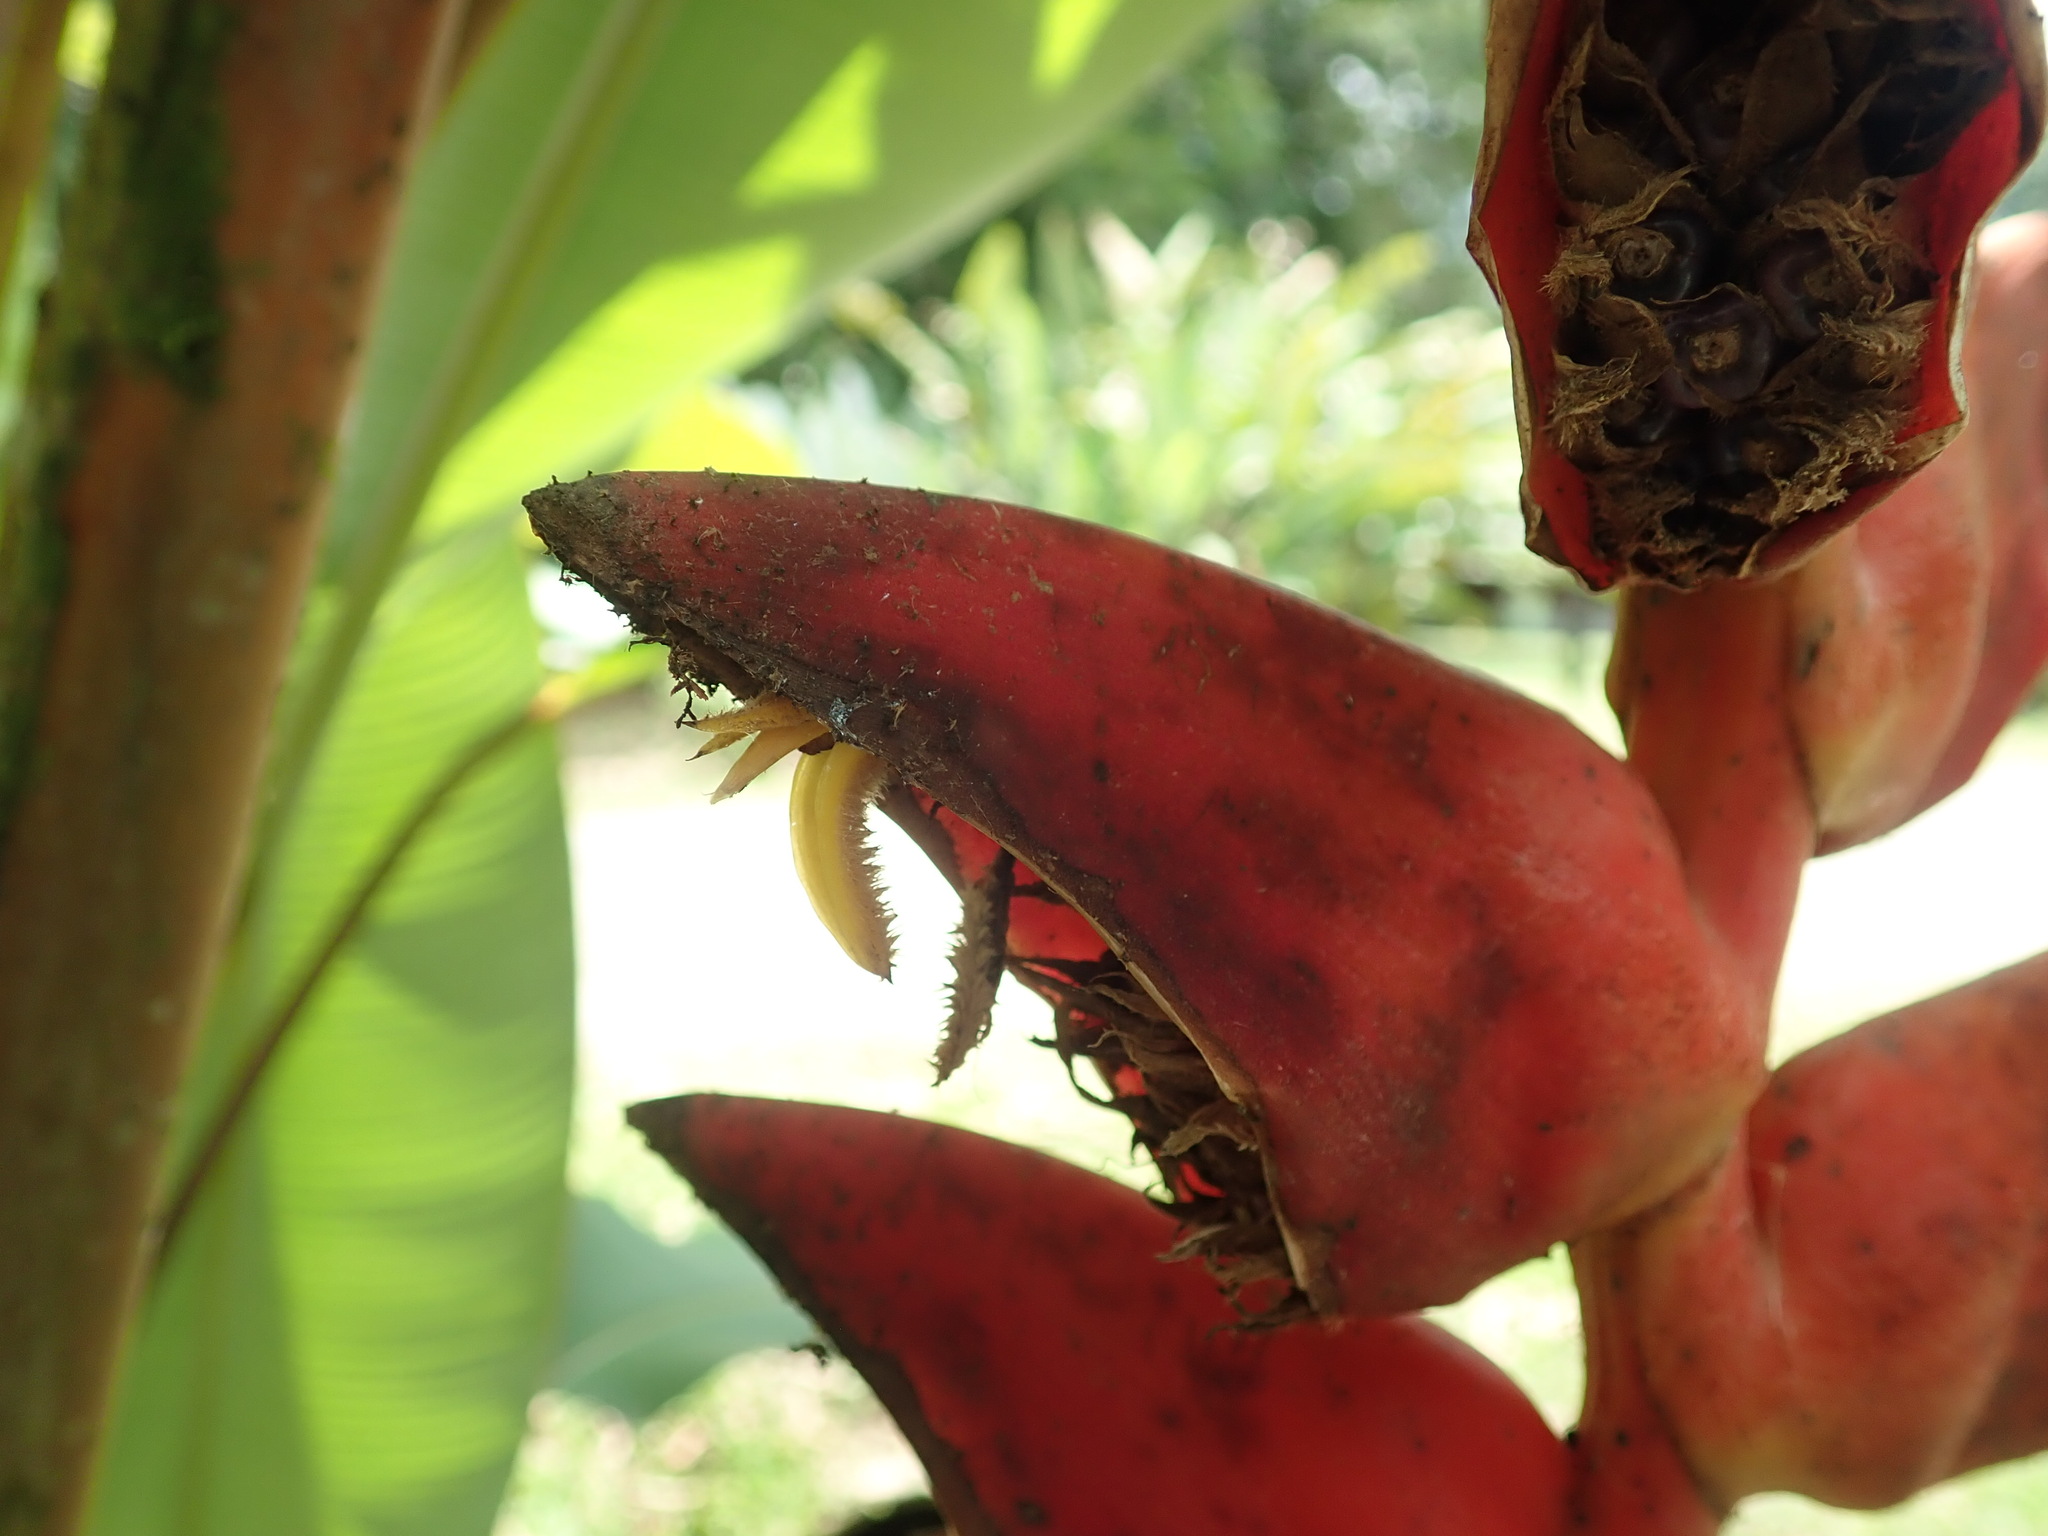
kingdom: Plantae
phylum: Tracheophyta
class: Liliopsida
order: Zingiberales
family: Heliconiaceae
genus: Heliconia
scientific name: Heliconia pogonantha
